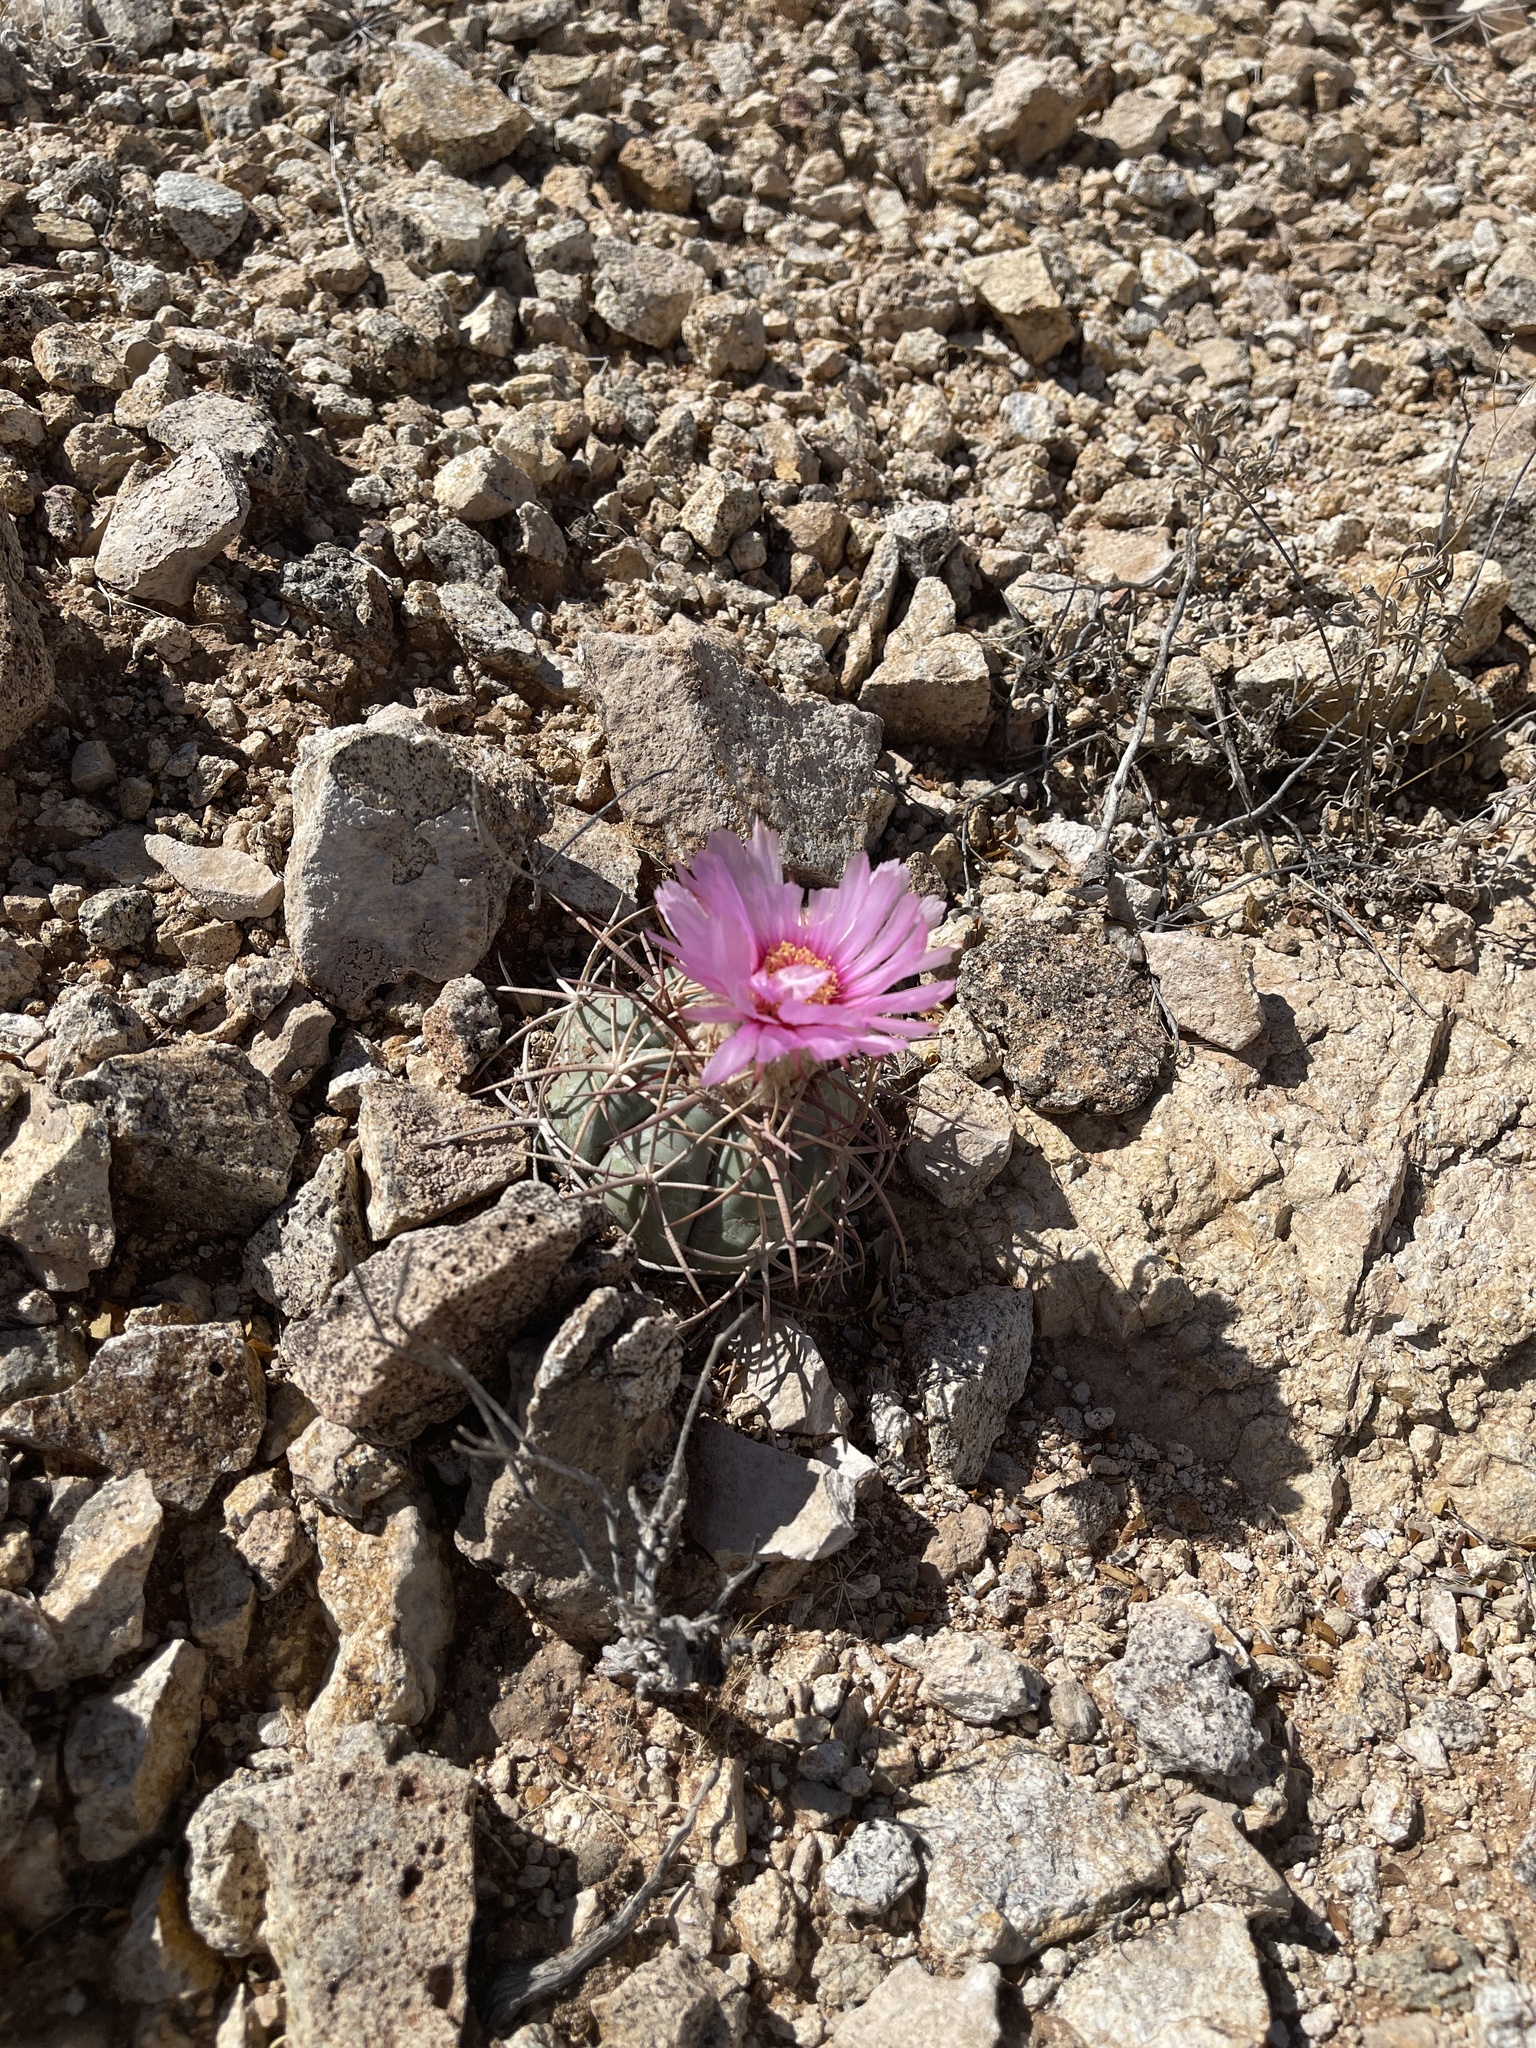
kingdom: Plantae
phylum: Tracheophyta
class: Magnoliopsida
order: Caryophyllales
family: Cactaceae
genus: Echinocactus
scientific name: Echinocactus horizonthalonius
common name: Devilshead
